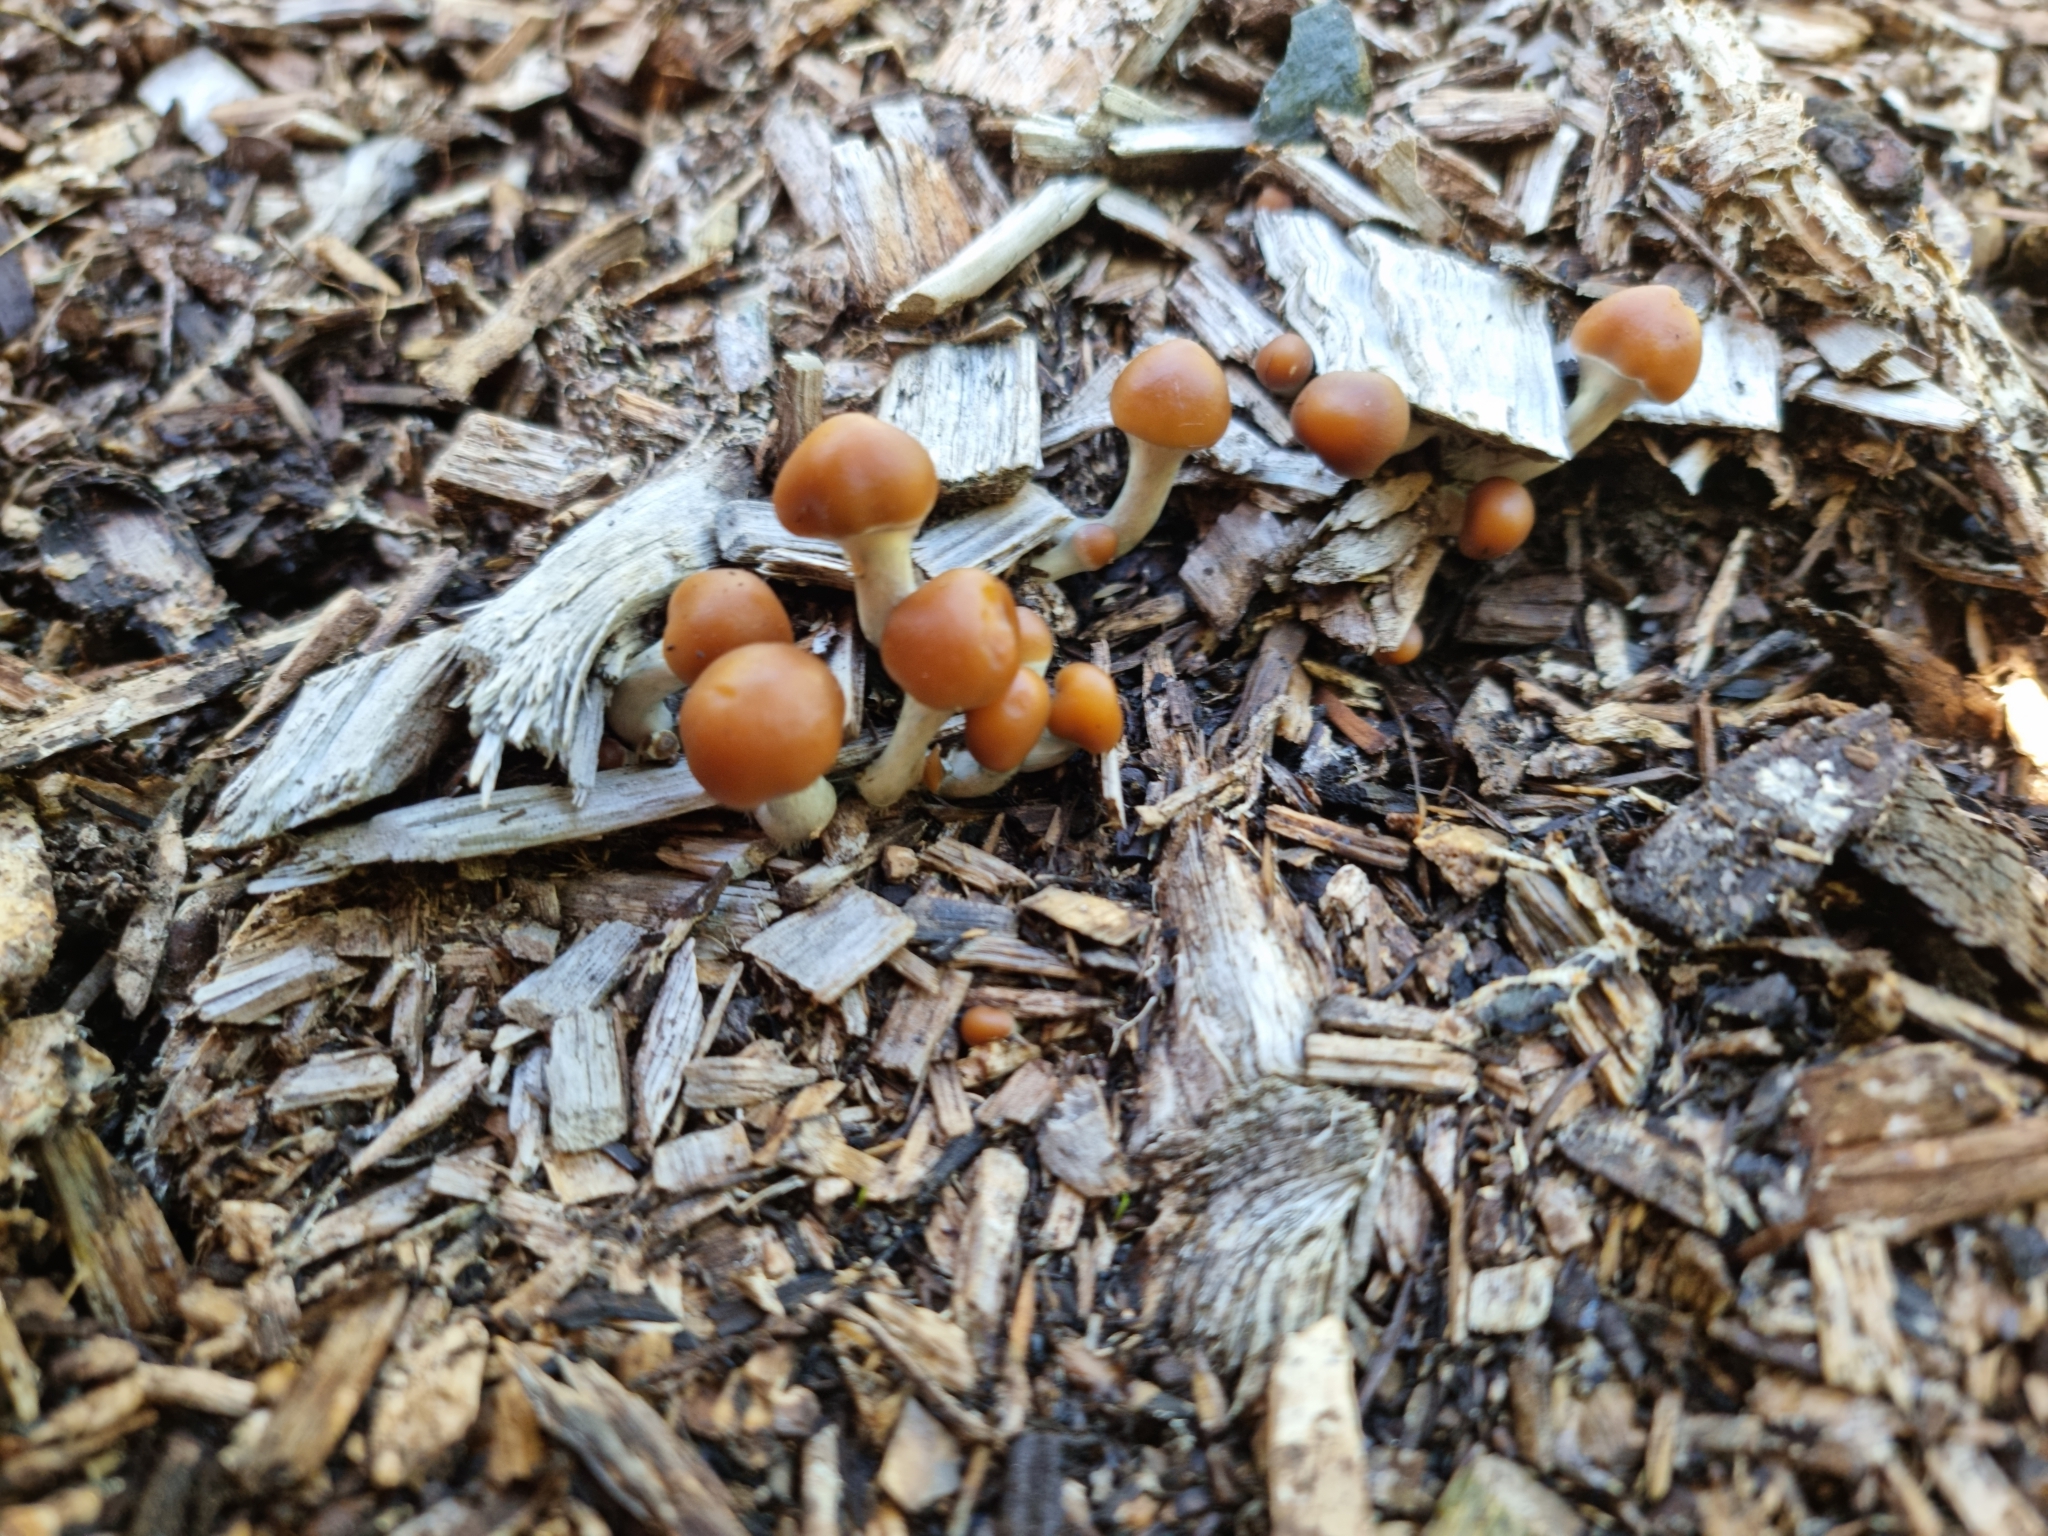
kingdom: Fungi
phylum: Basidiomycota
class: Agaricomycetes
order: Agaricales
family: Hymenogastraceae
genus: Psilocybe
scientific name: Psilocybe subaeruginosa
